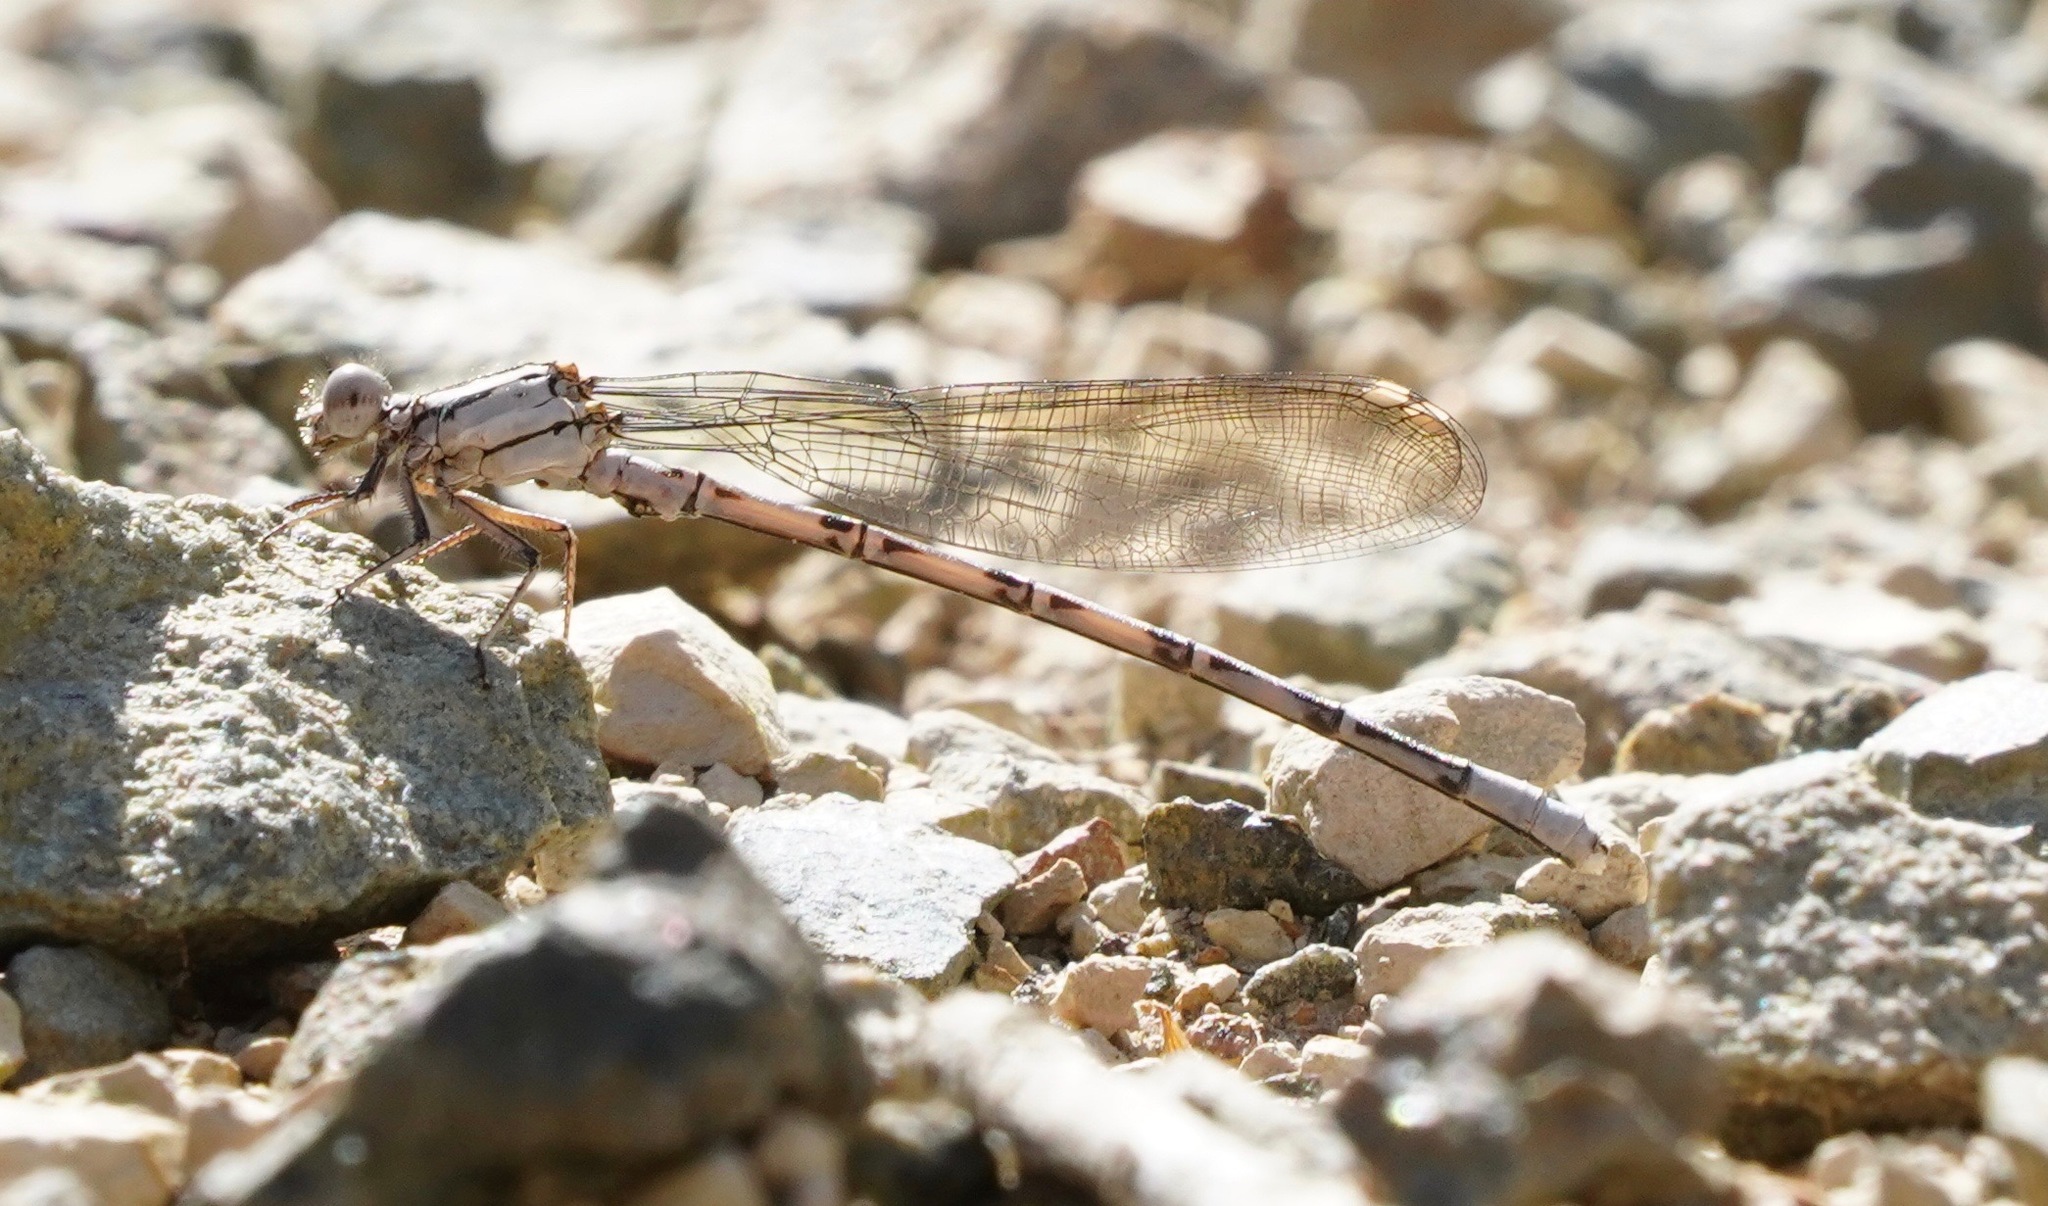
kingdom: Animalia
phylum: Arthropoda
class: Insecta
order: Odonata
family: Coenagrionidae
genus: Argia
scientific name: Argia vivida
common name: Vivid dancer
